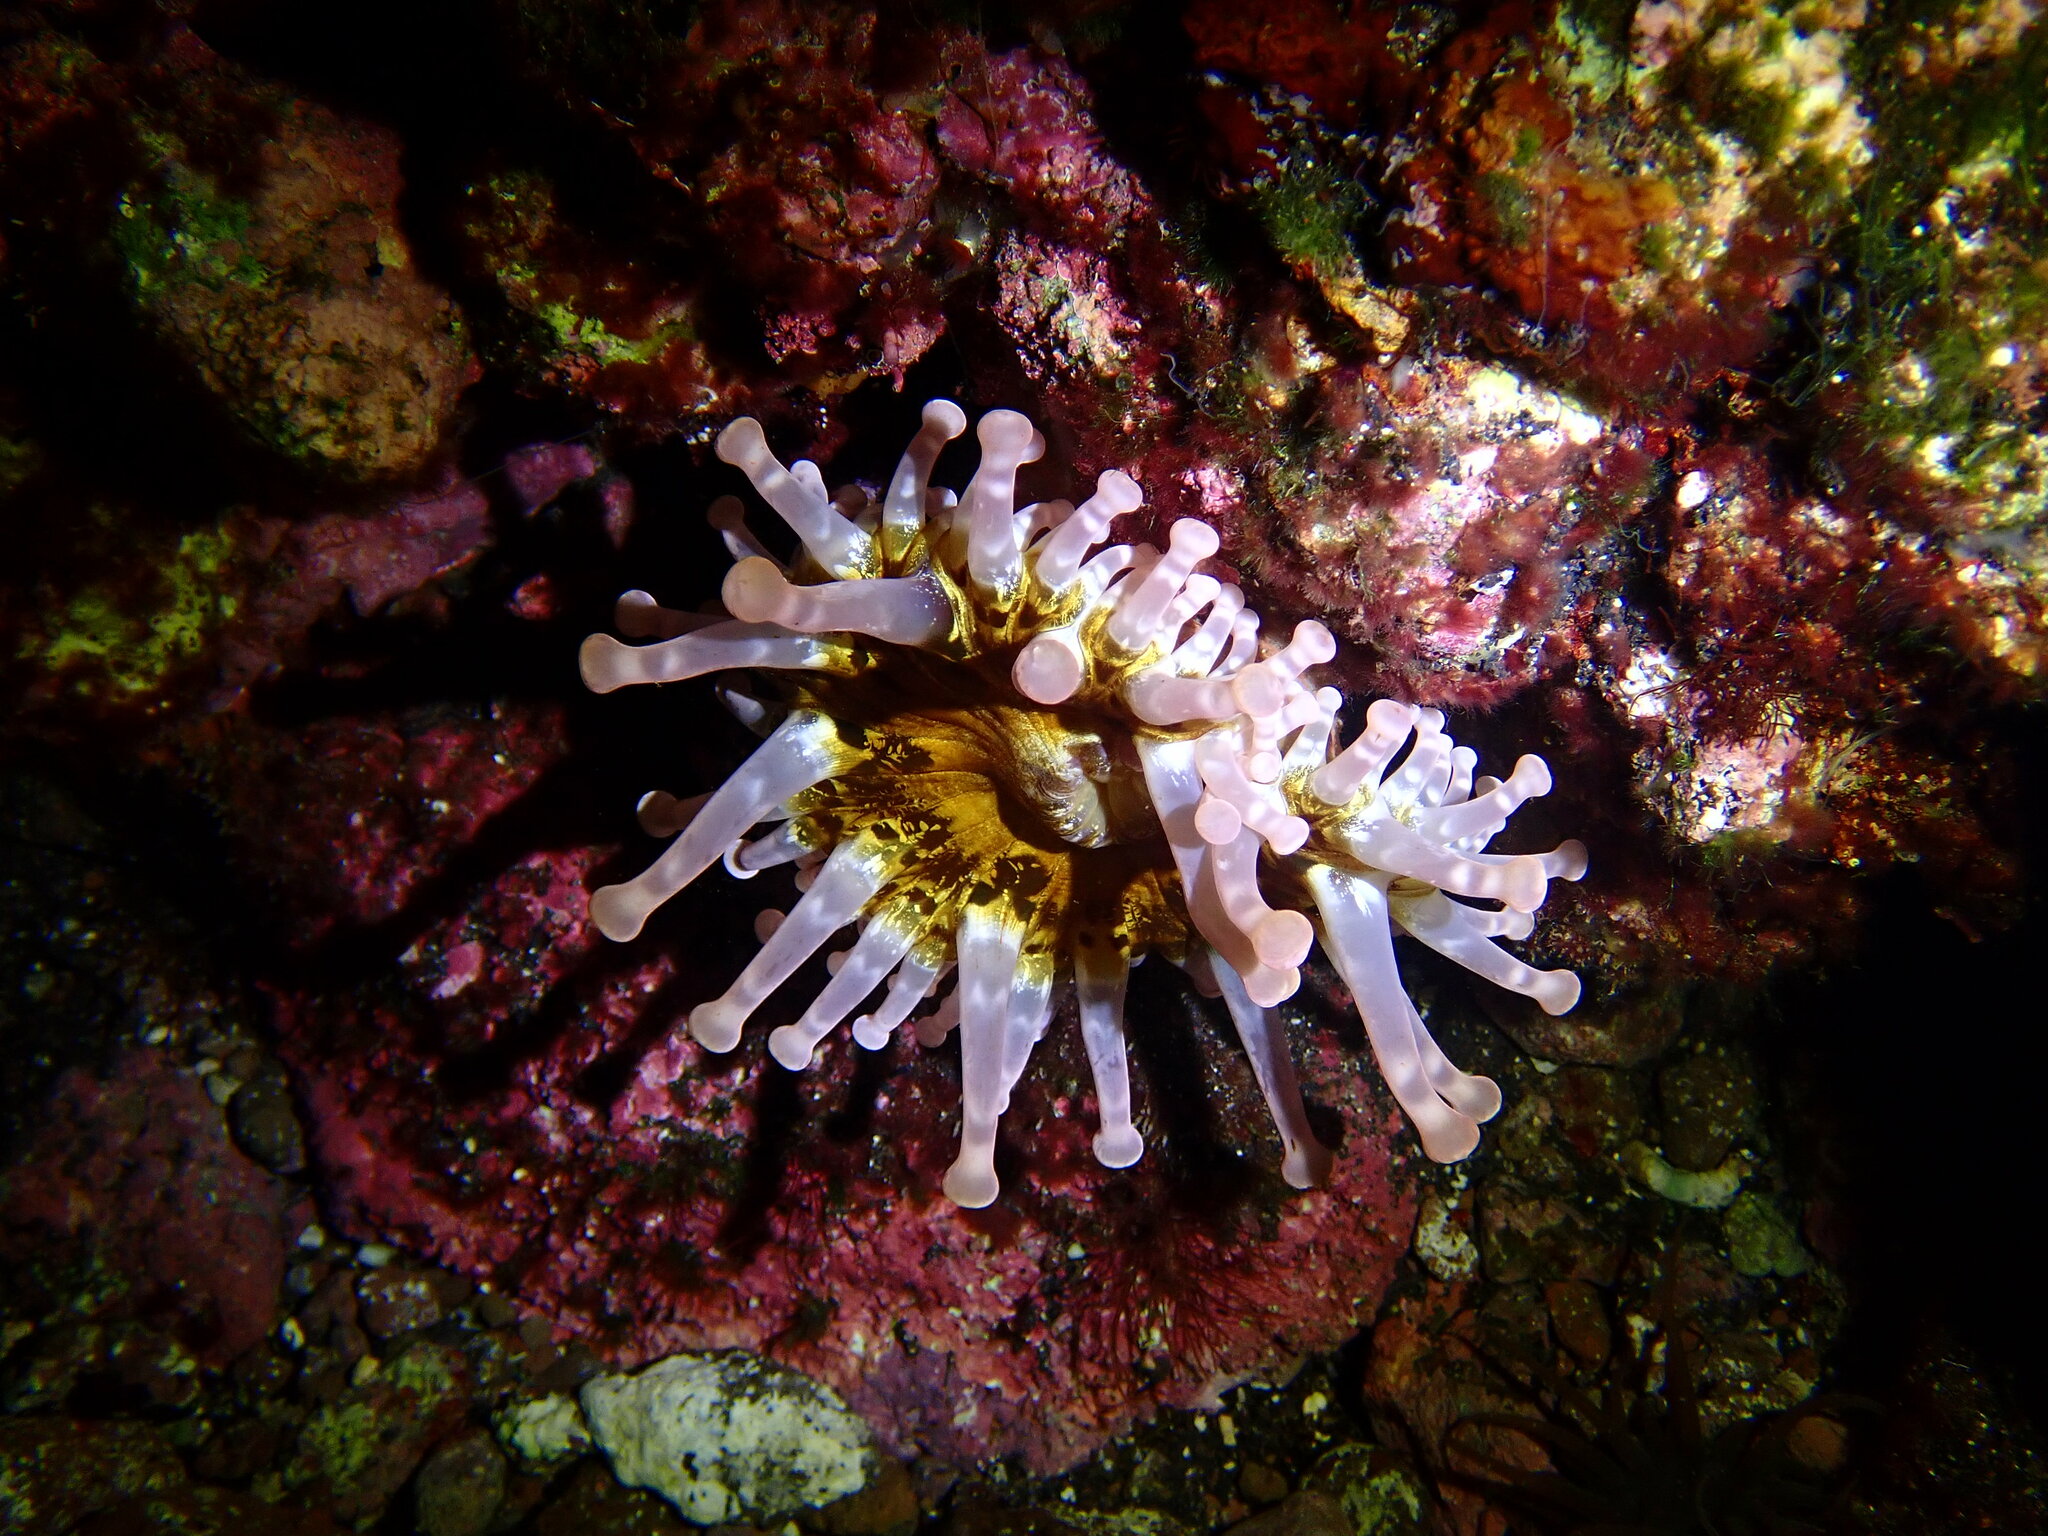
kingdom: Animalia
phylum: Cnidaria
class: Anthozoa
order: Actiniaria
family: Andvakiidae
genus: Telmatactis
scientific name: Telmatactis cricoides
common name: Blunt-tentacled anemone
